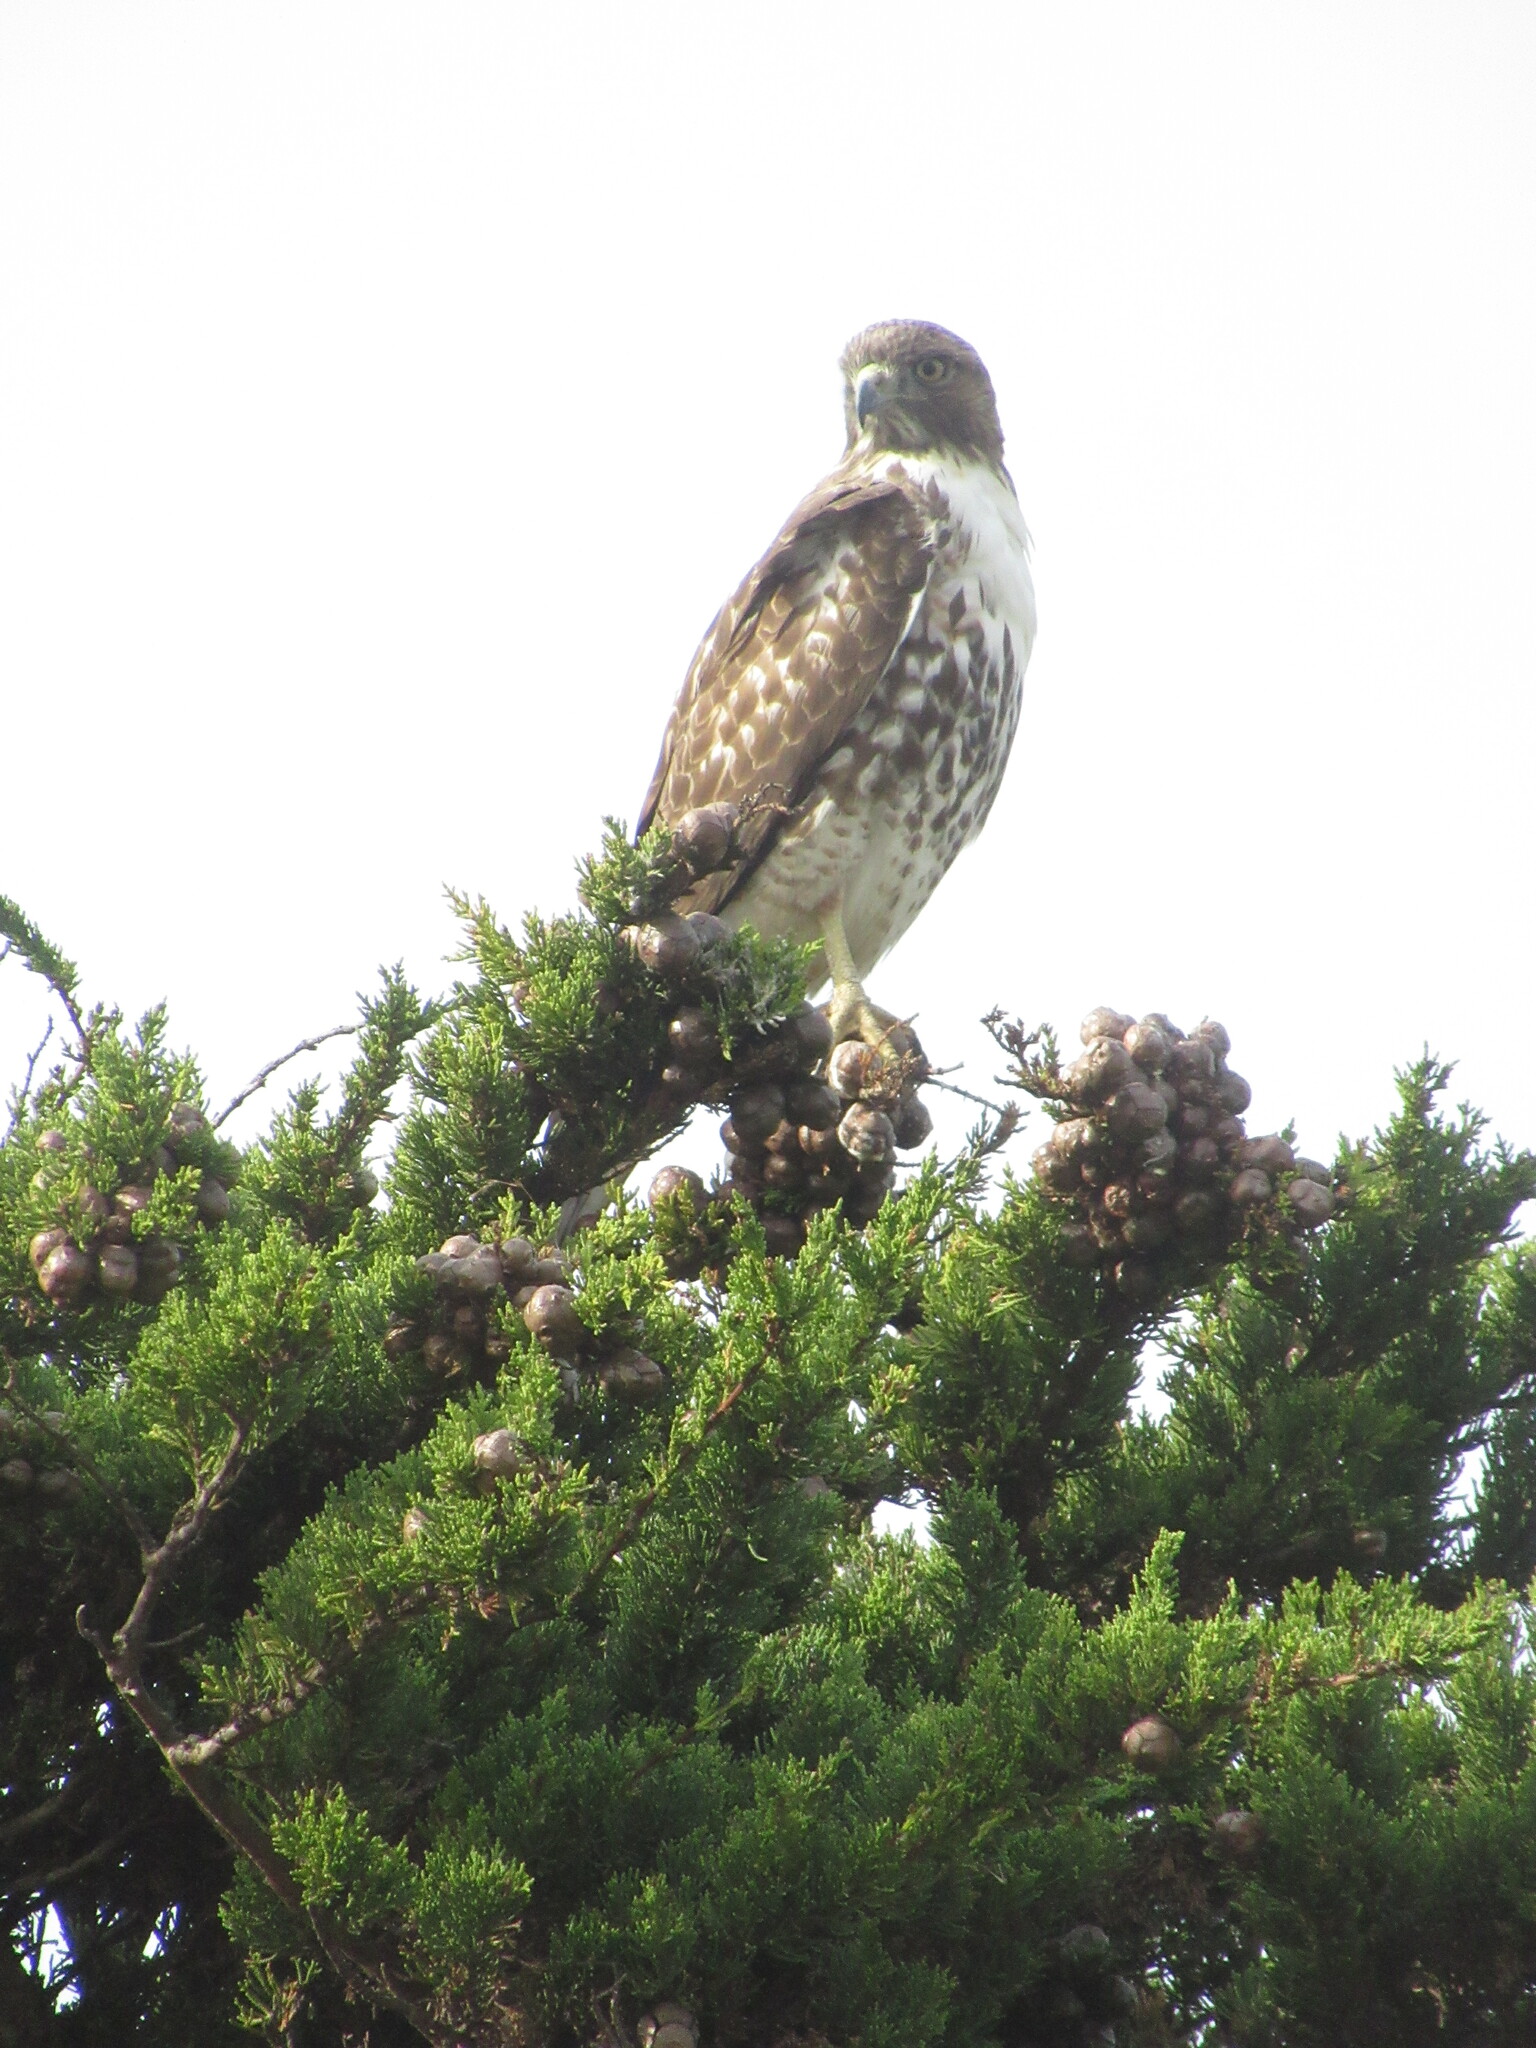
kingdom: Animalia
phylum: Chordata
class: Aves
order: Accipitriformes
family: Accipitridae
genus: Buteo
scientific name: Buteo jamaicensis
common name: Red-tailed hawk
